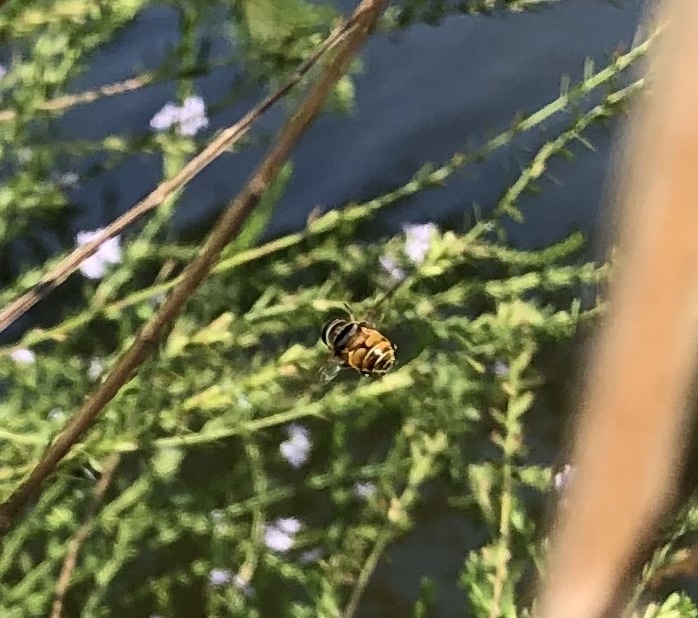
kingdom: Animalia
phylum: Arthropoda
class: Insecta
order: Diptera
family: Syrphidae
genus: Palpada
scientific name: Palpada vinetorum
